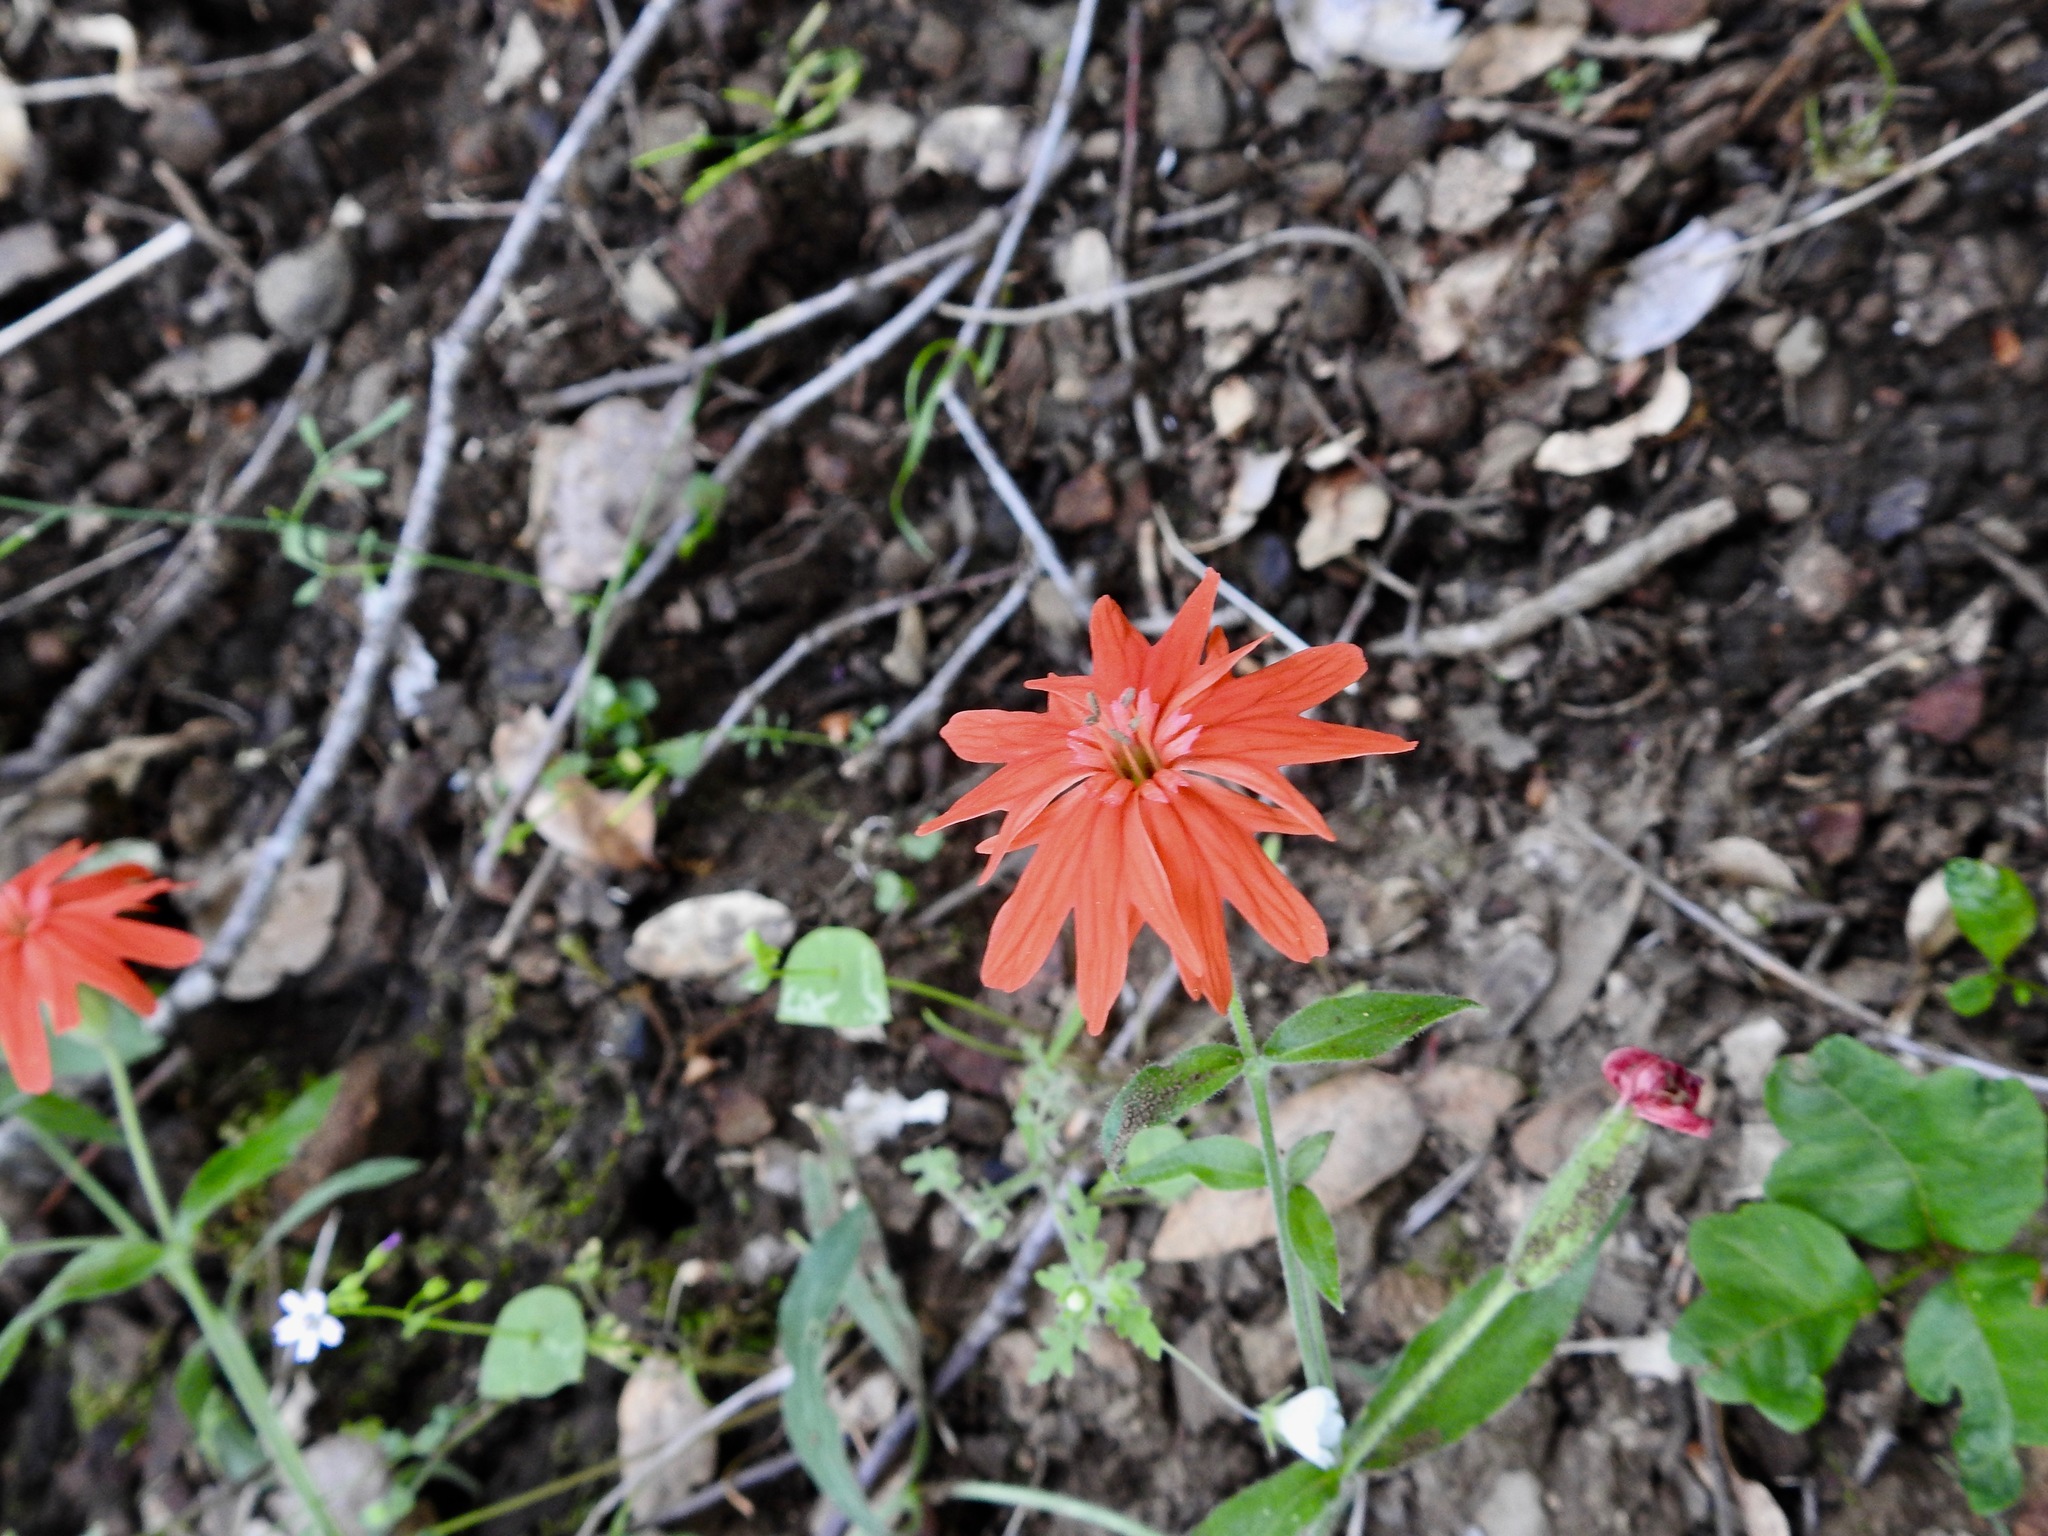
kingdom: Plantae
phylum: Tracheophyta
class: Magnoliopsida
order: Caryophyllales
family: Caryophyllaceae
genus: Silene
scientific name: Silene laciniata
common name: Indian-pink
